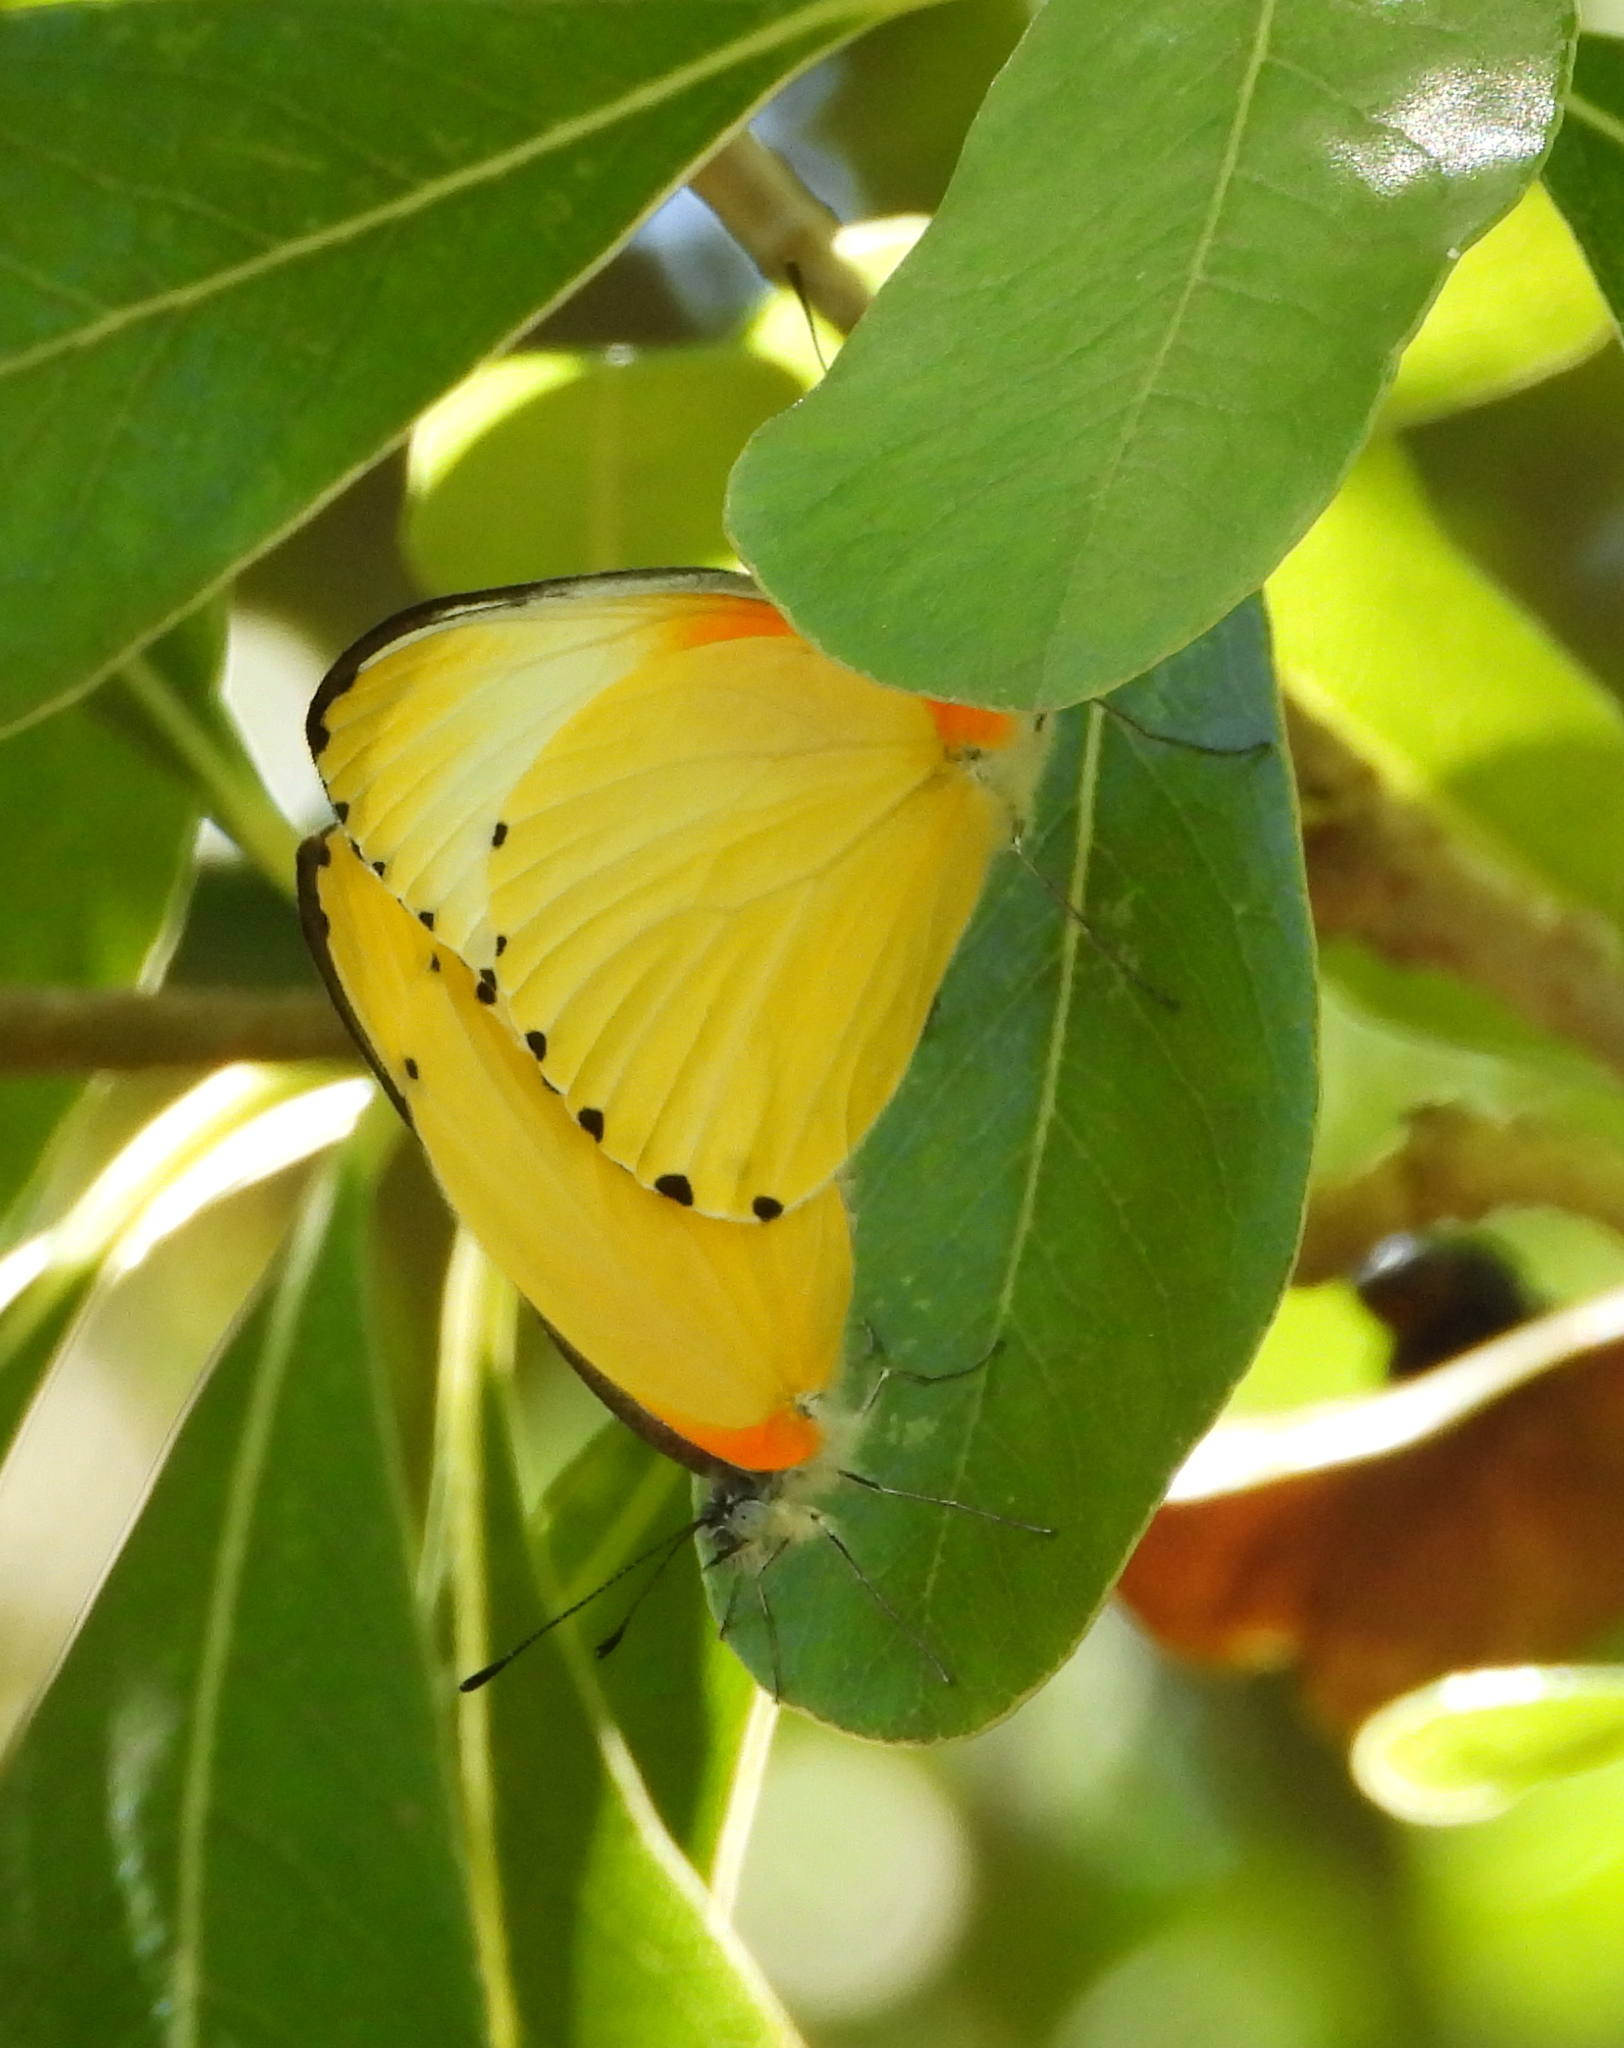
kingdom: Animalia
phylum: Arthropoda
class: Insecta
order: Lepidoptera
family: Pieridae
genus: Mylothris
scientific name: Mylothris agathina
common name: Eastern dotted border
